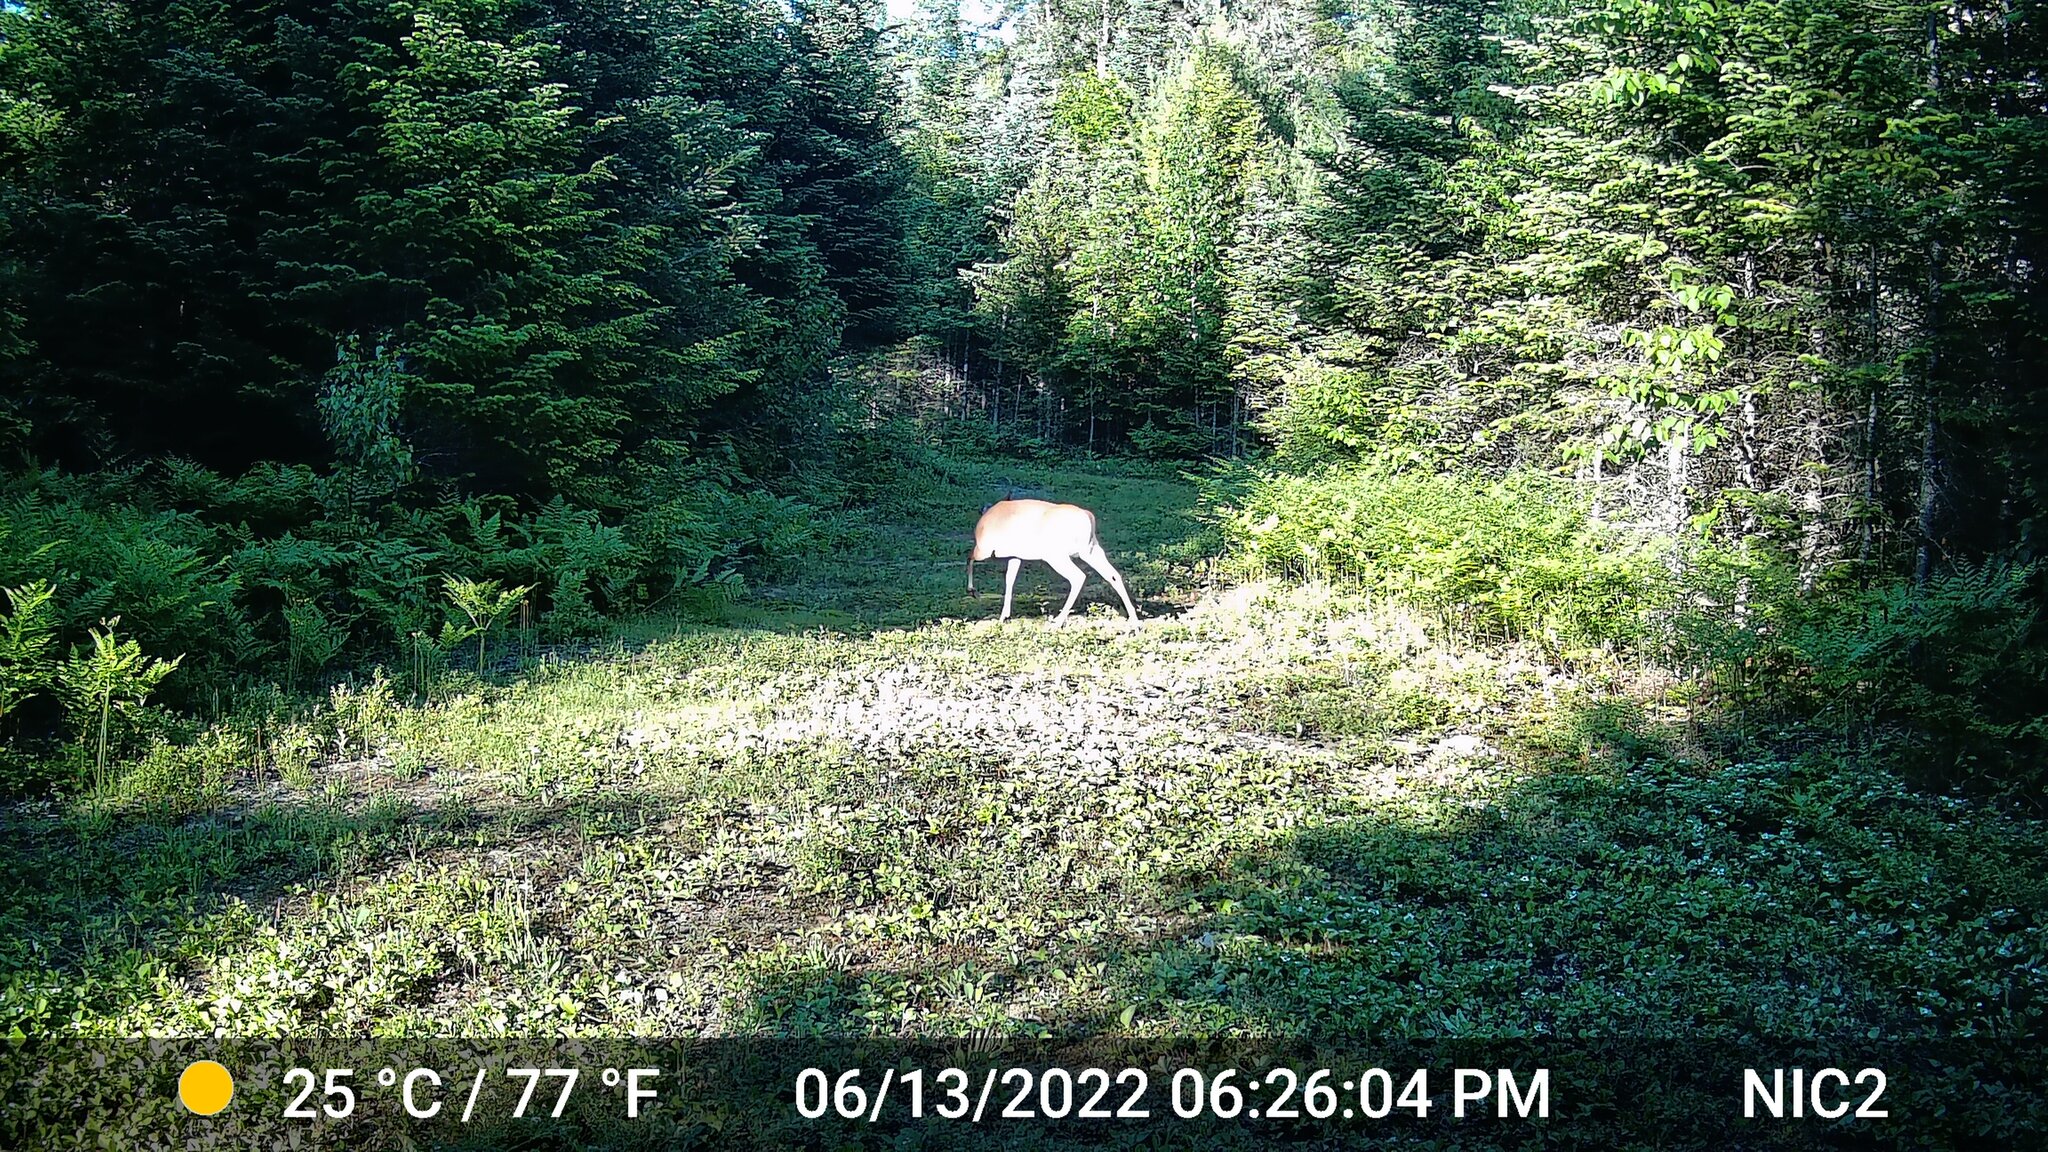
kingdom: Animalia
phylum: Chordata
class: Mammalia
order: Artiodactyla
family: Cervidae
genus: Odocoileus
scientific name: Odocoileus virginianus
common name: White-tailed deer
